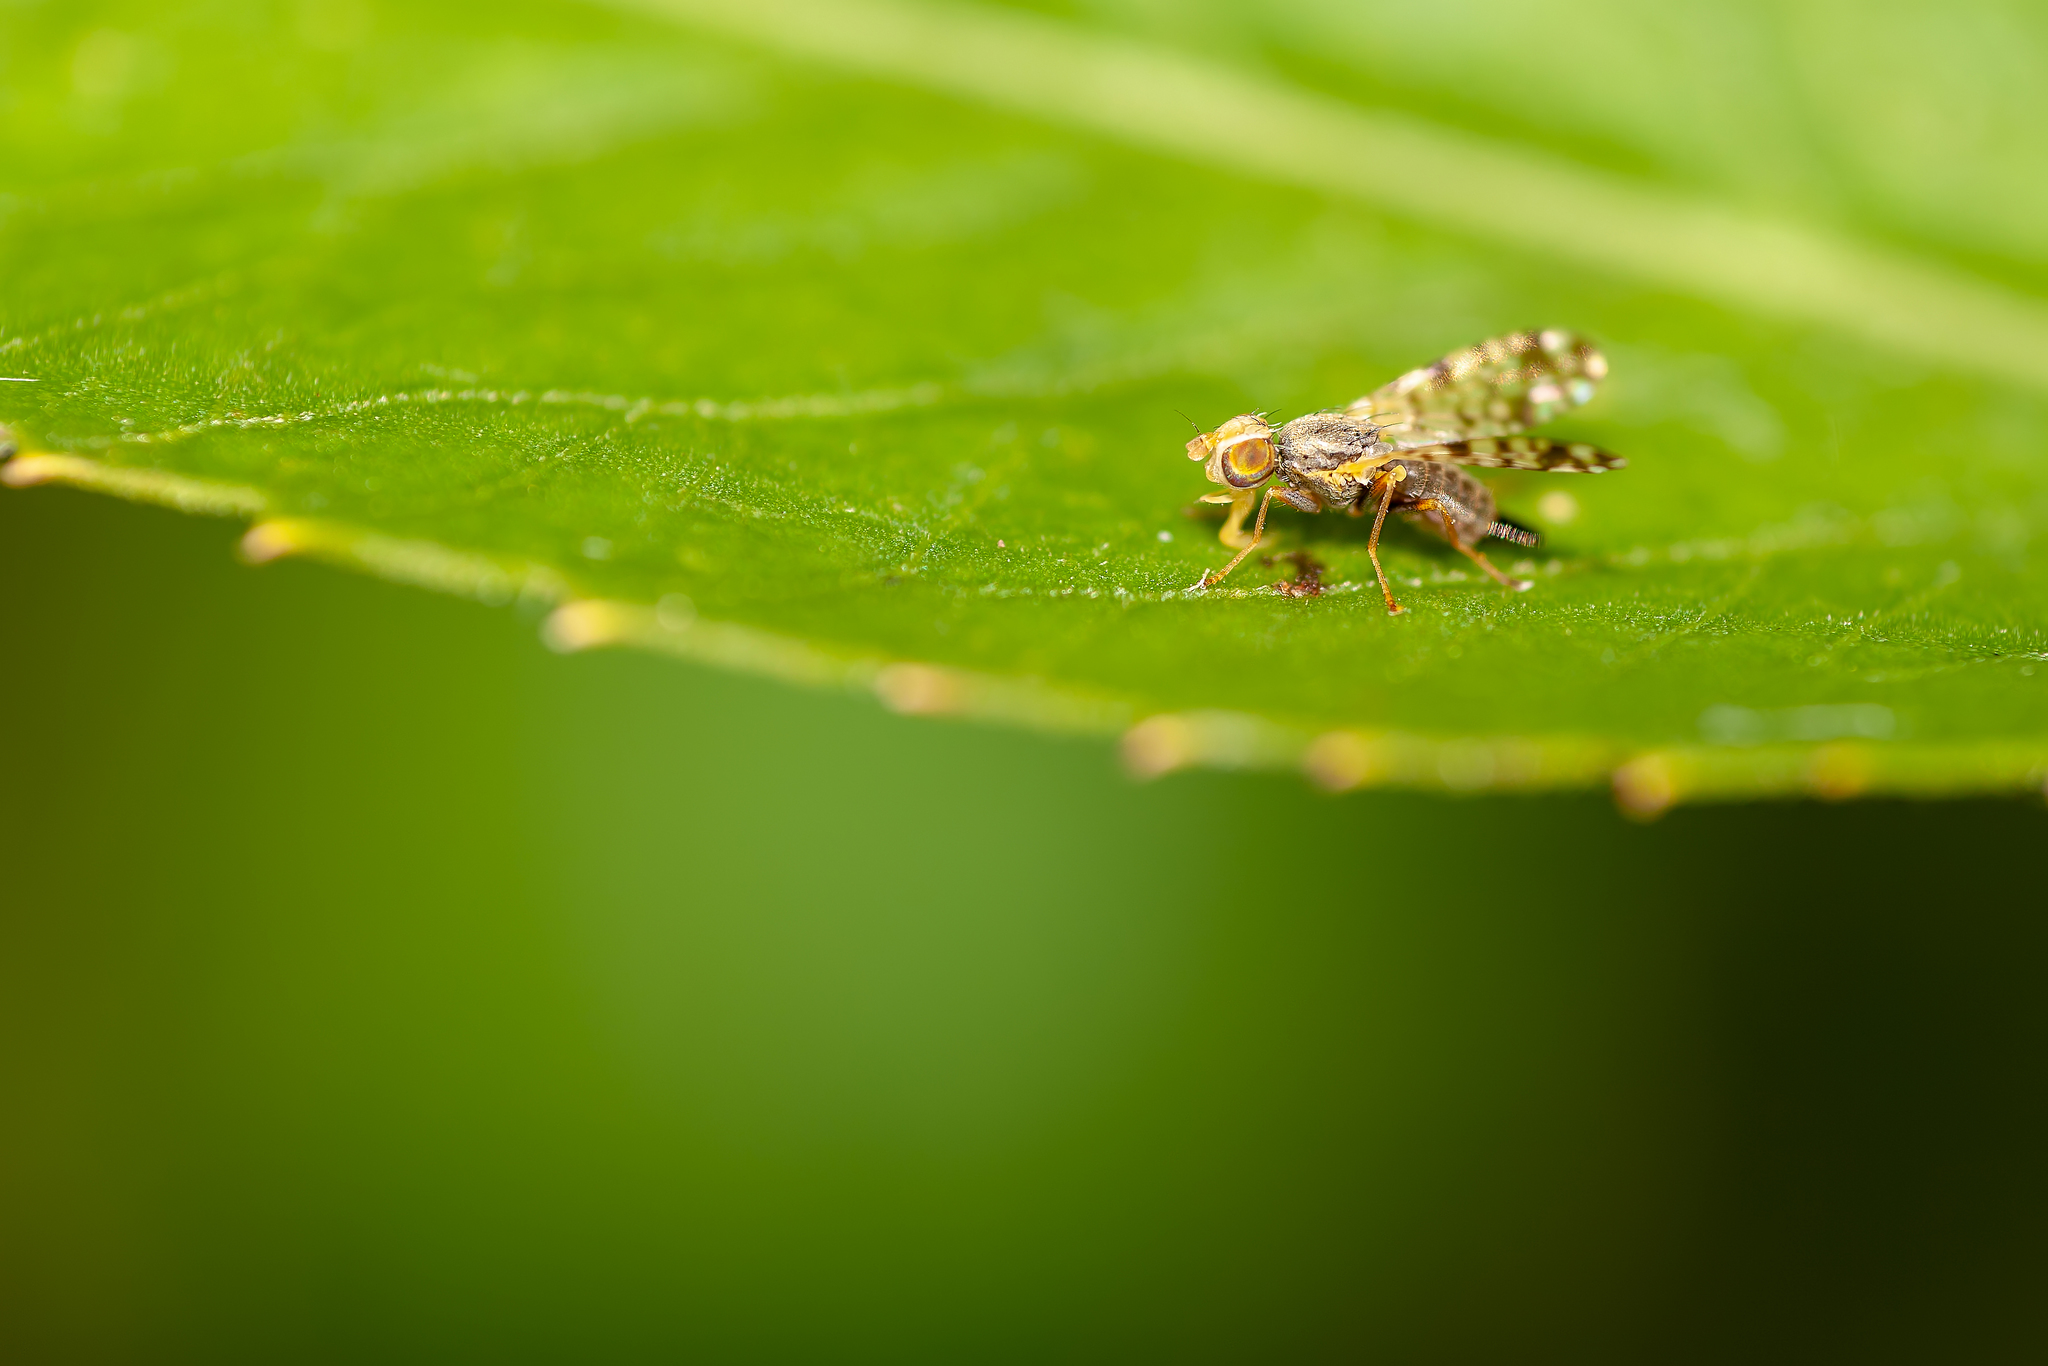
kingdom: Animalia
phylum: Arthropoda
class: Insecta
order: Diptera
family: Tephritidae
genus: Dioxyna
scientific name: Dioxyna picciola
